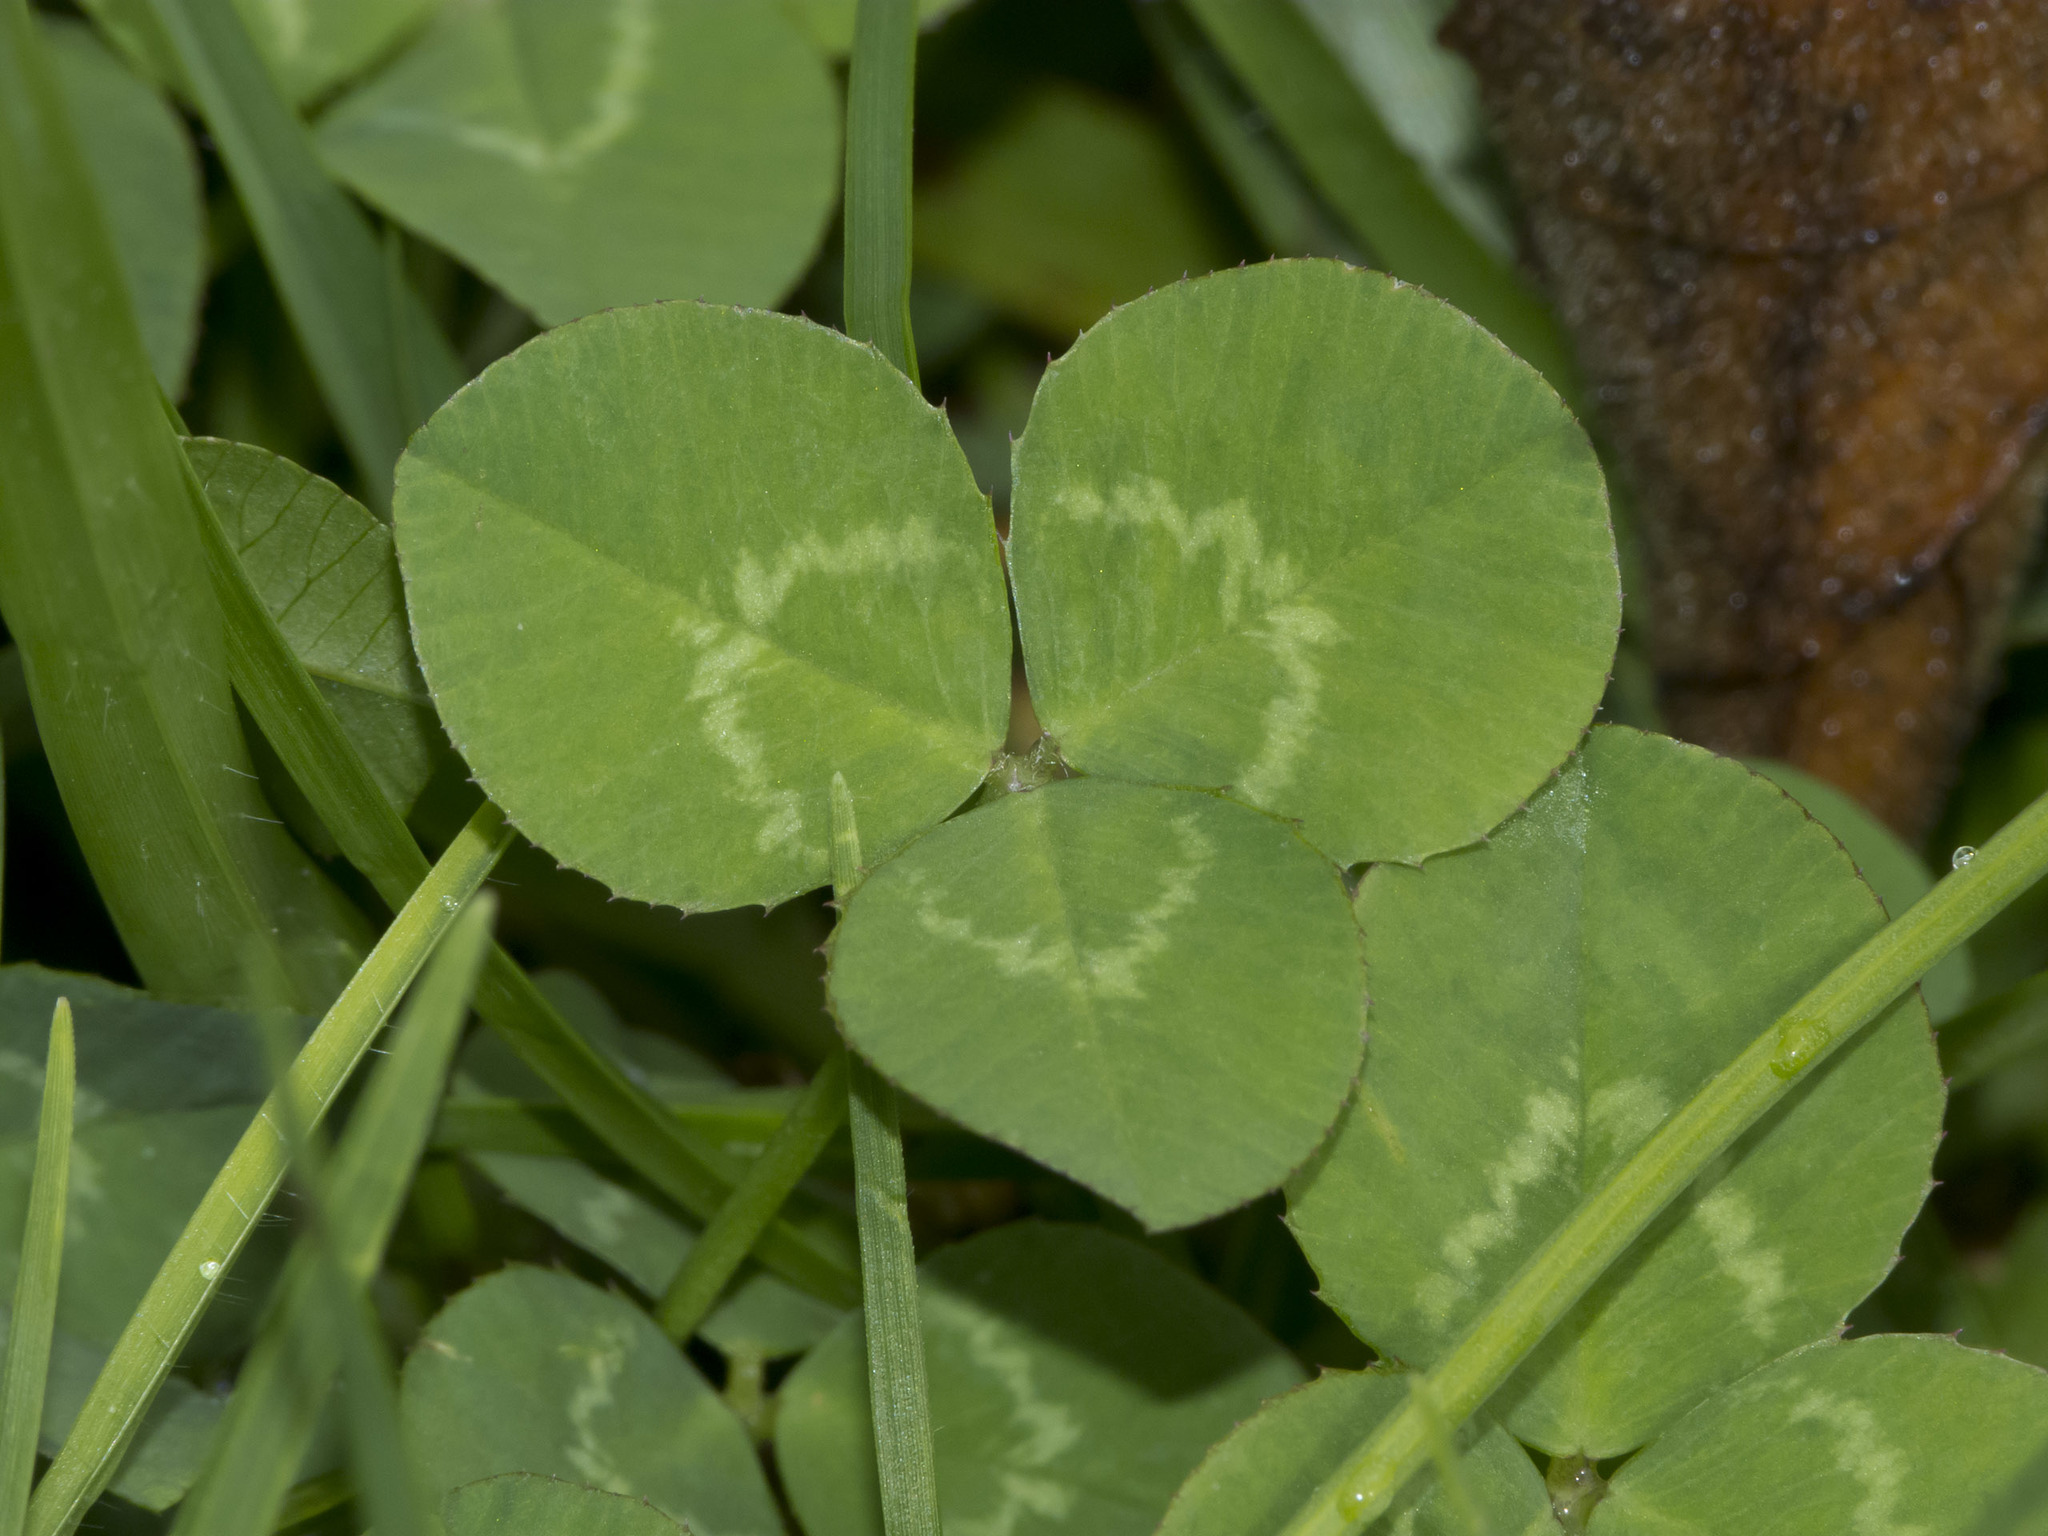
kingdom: Plantae
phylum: Tracheophyta
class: Magnoliopsida
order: Fabales
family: Fabaceae
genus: Trifolium
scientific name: Trifolium repens
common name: White clover
